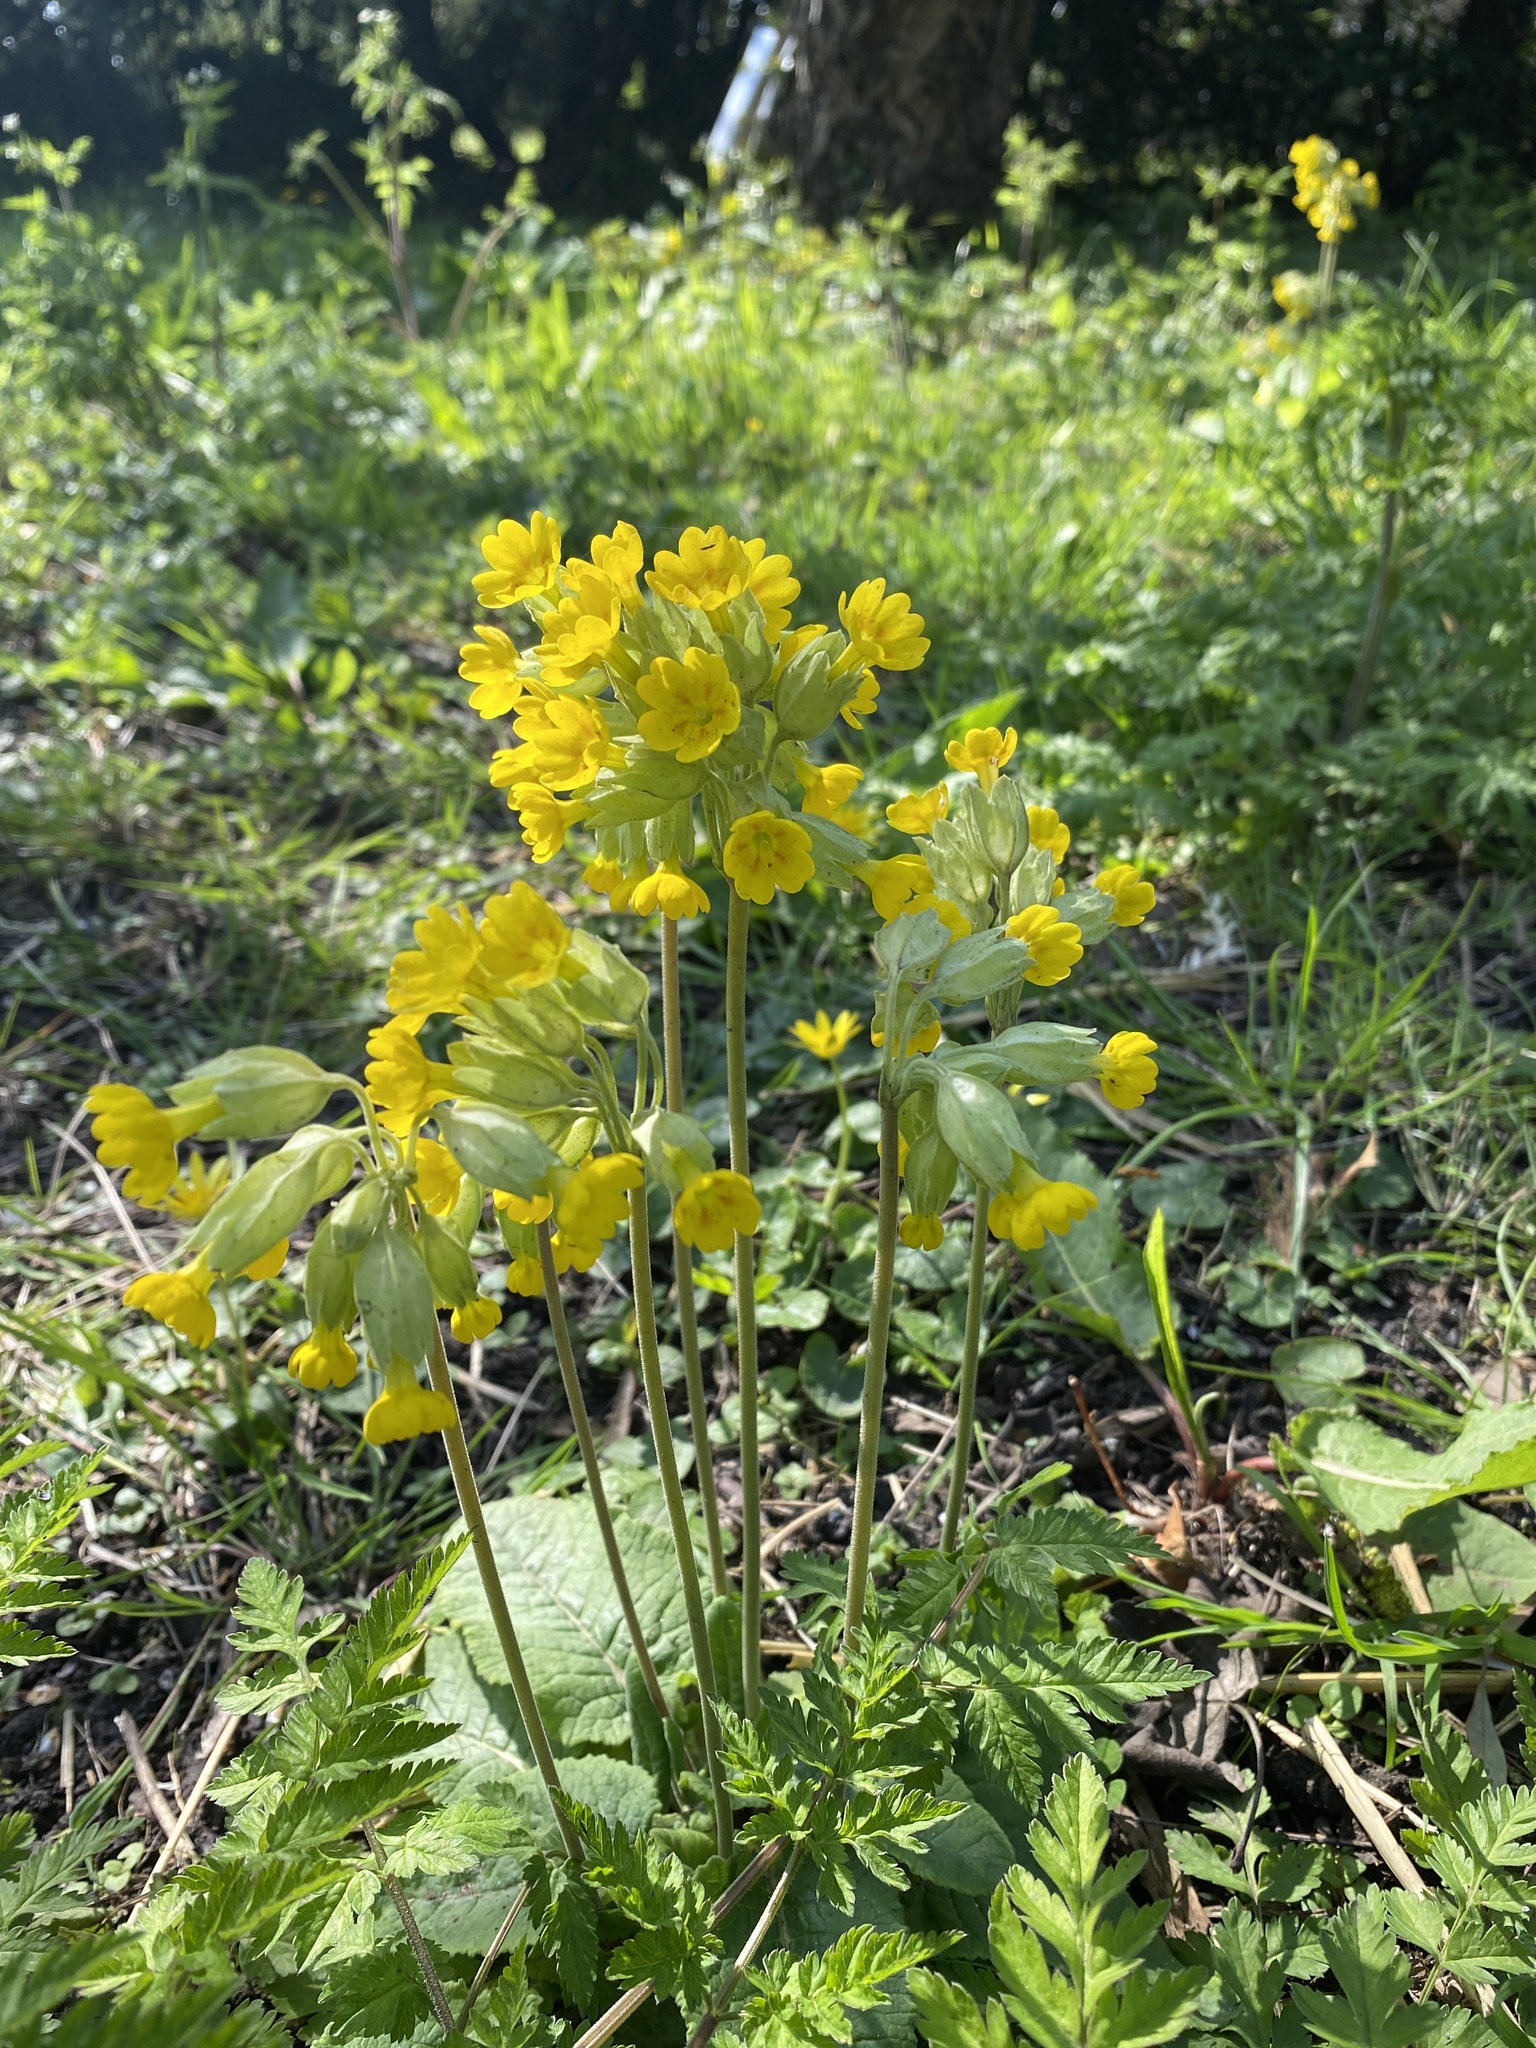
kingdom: Plantae
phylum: Tracheophyta
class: Magnoliopsida
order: Ericales
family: Primulaceae
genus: Primula
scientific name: Primula veris
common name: Cowslip
